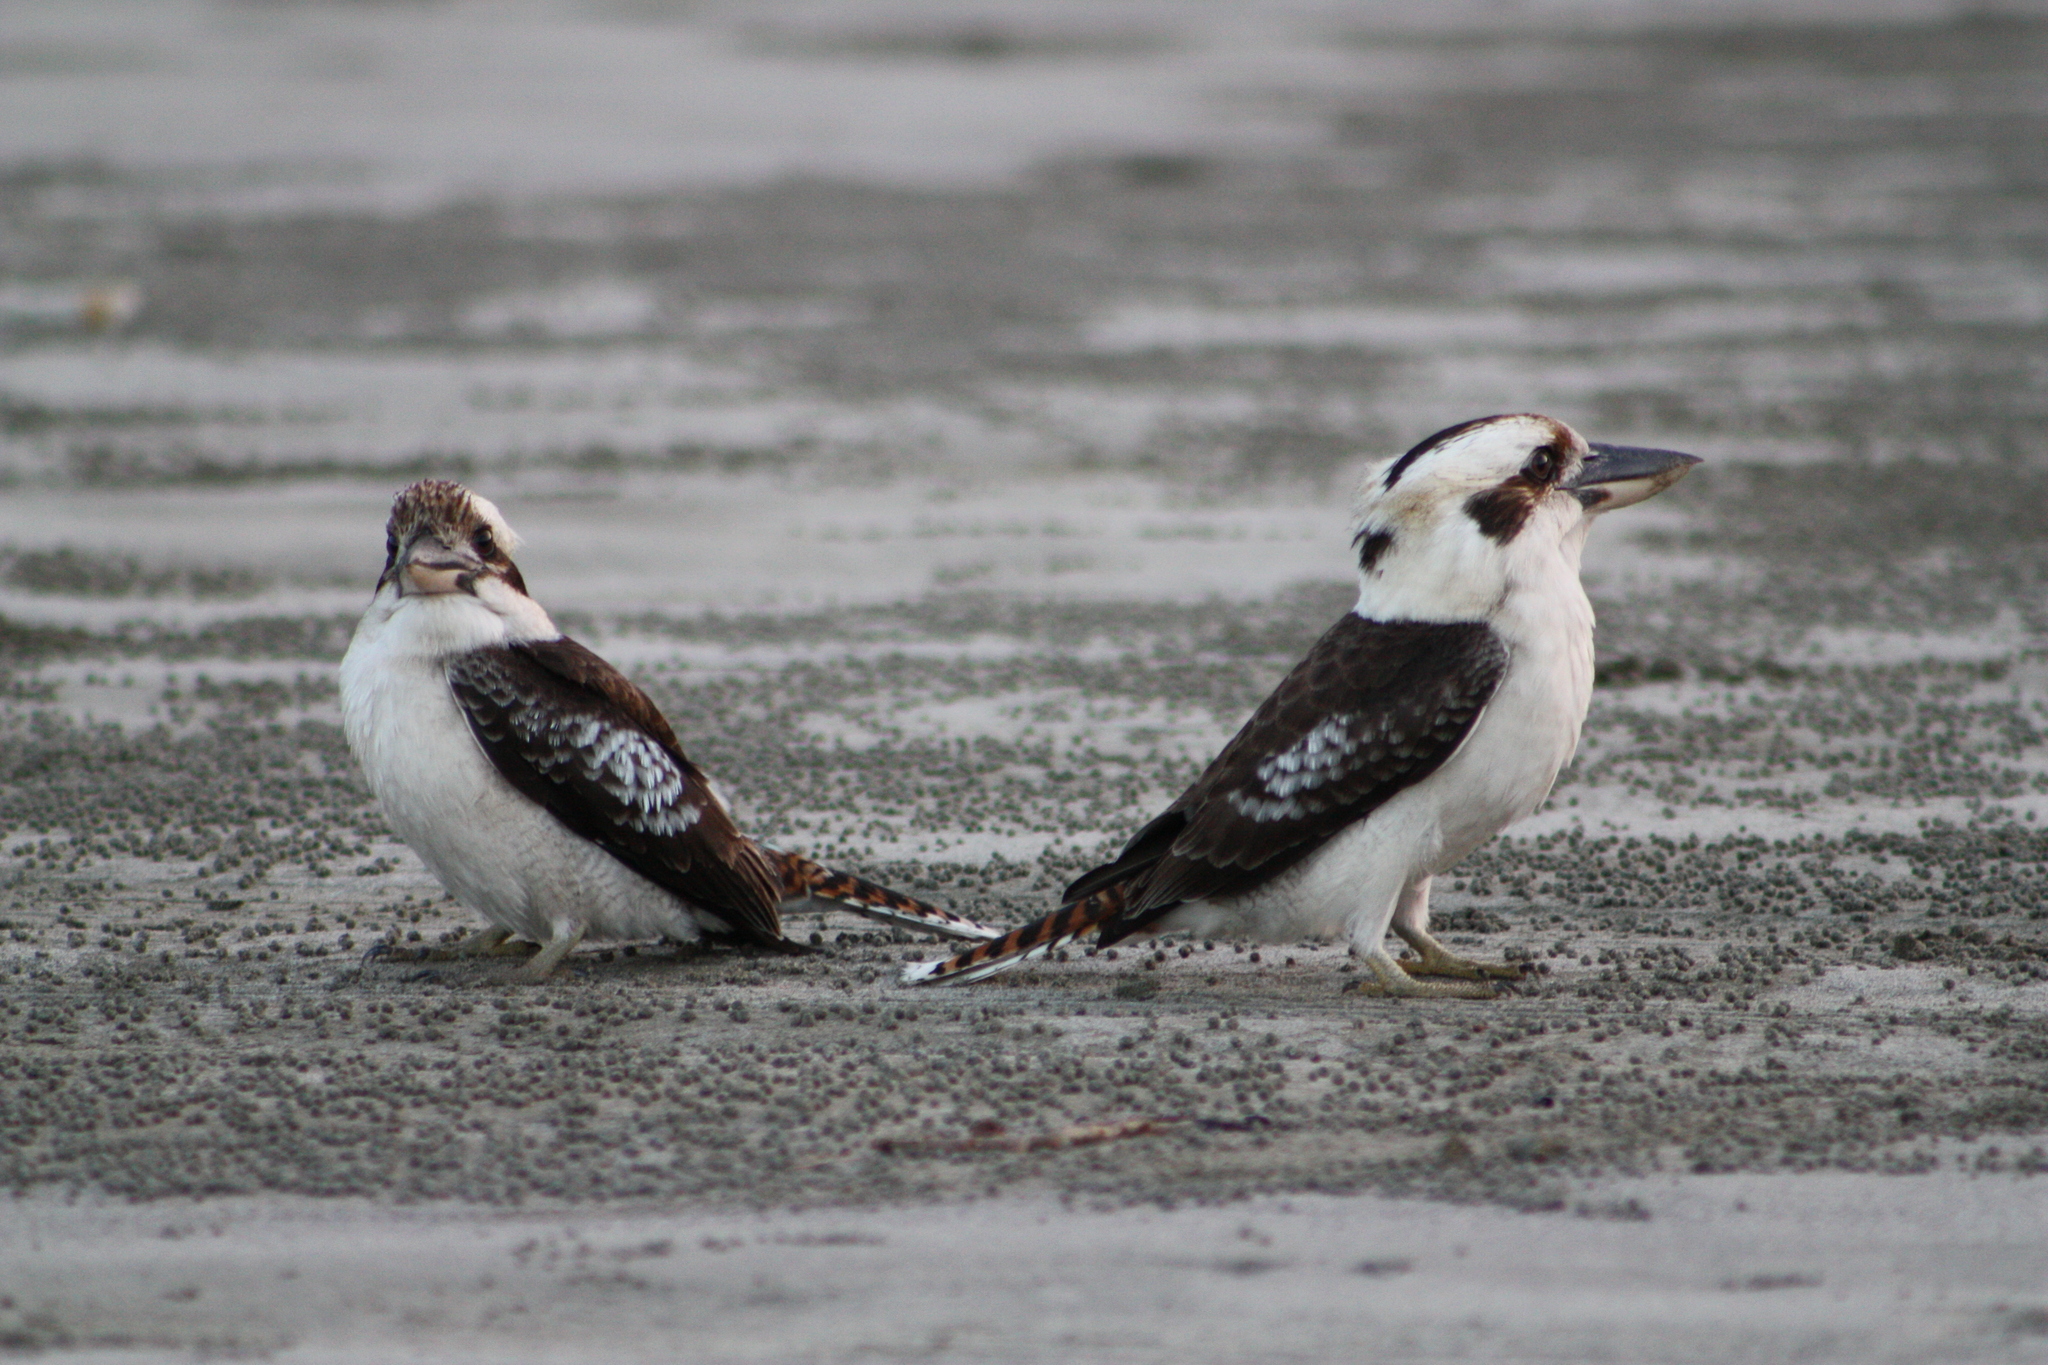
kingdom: Animalia
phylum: Chordata
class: Aves
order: Coraciiformes
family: Alcedinidae
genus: Dacelo
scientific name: Dacelo novaeguineae
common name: Laughing kookaburra
